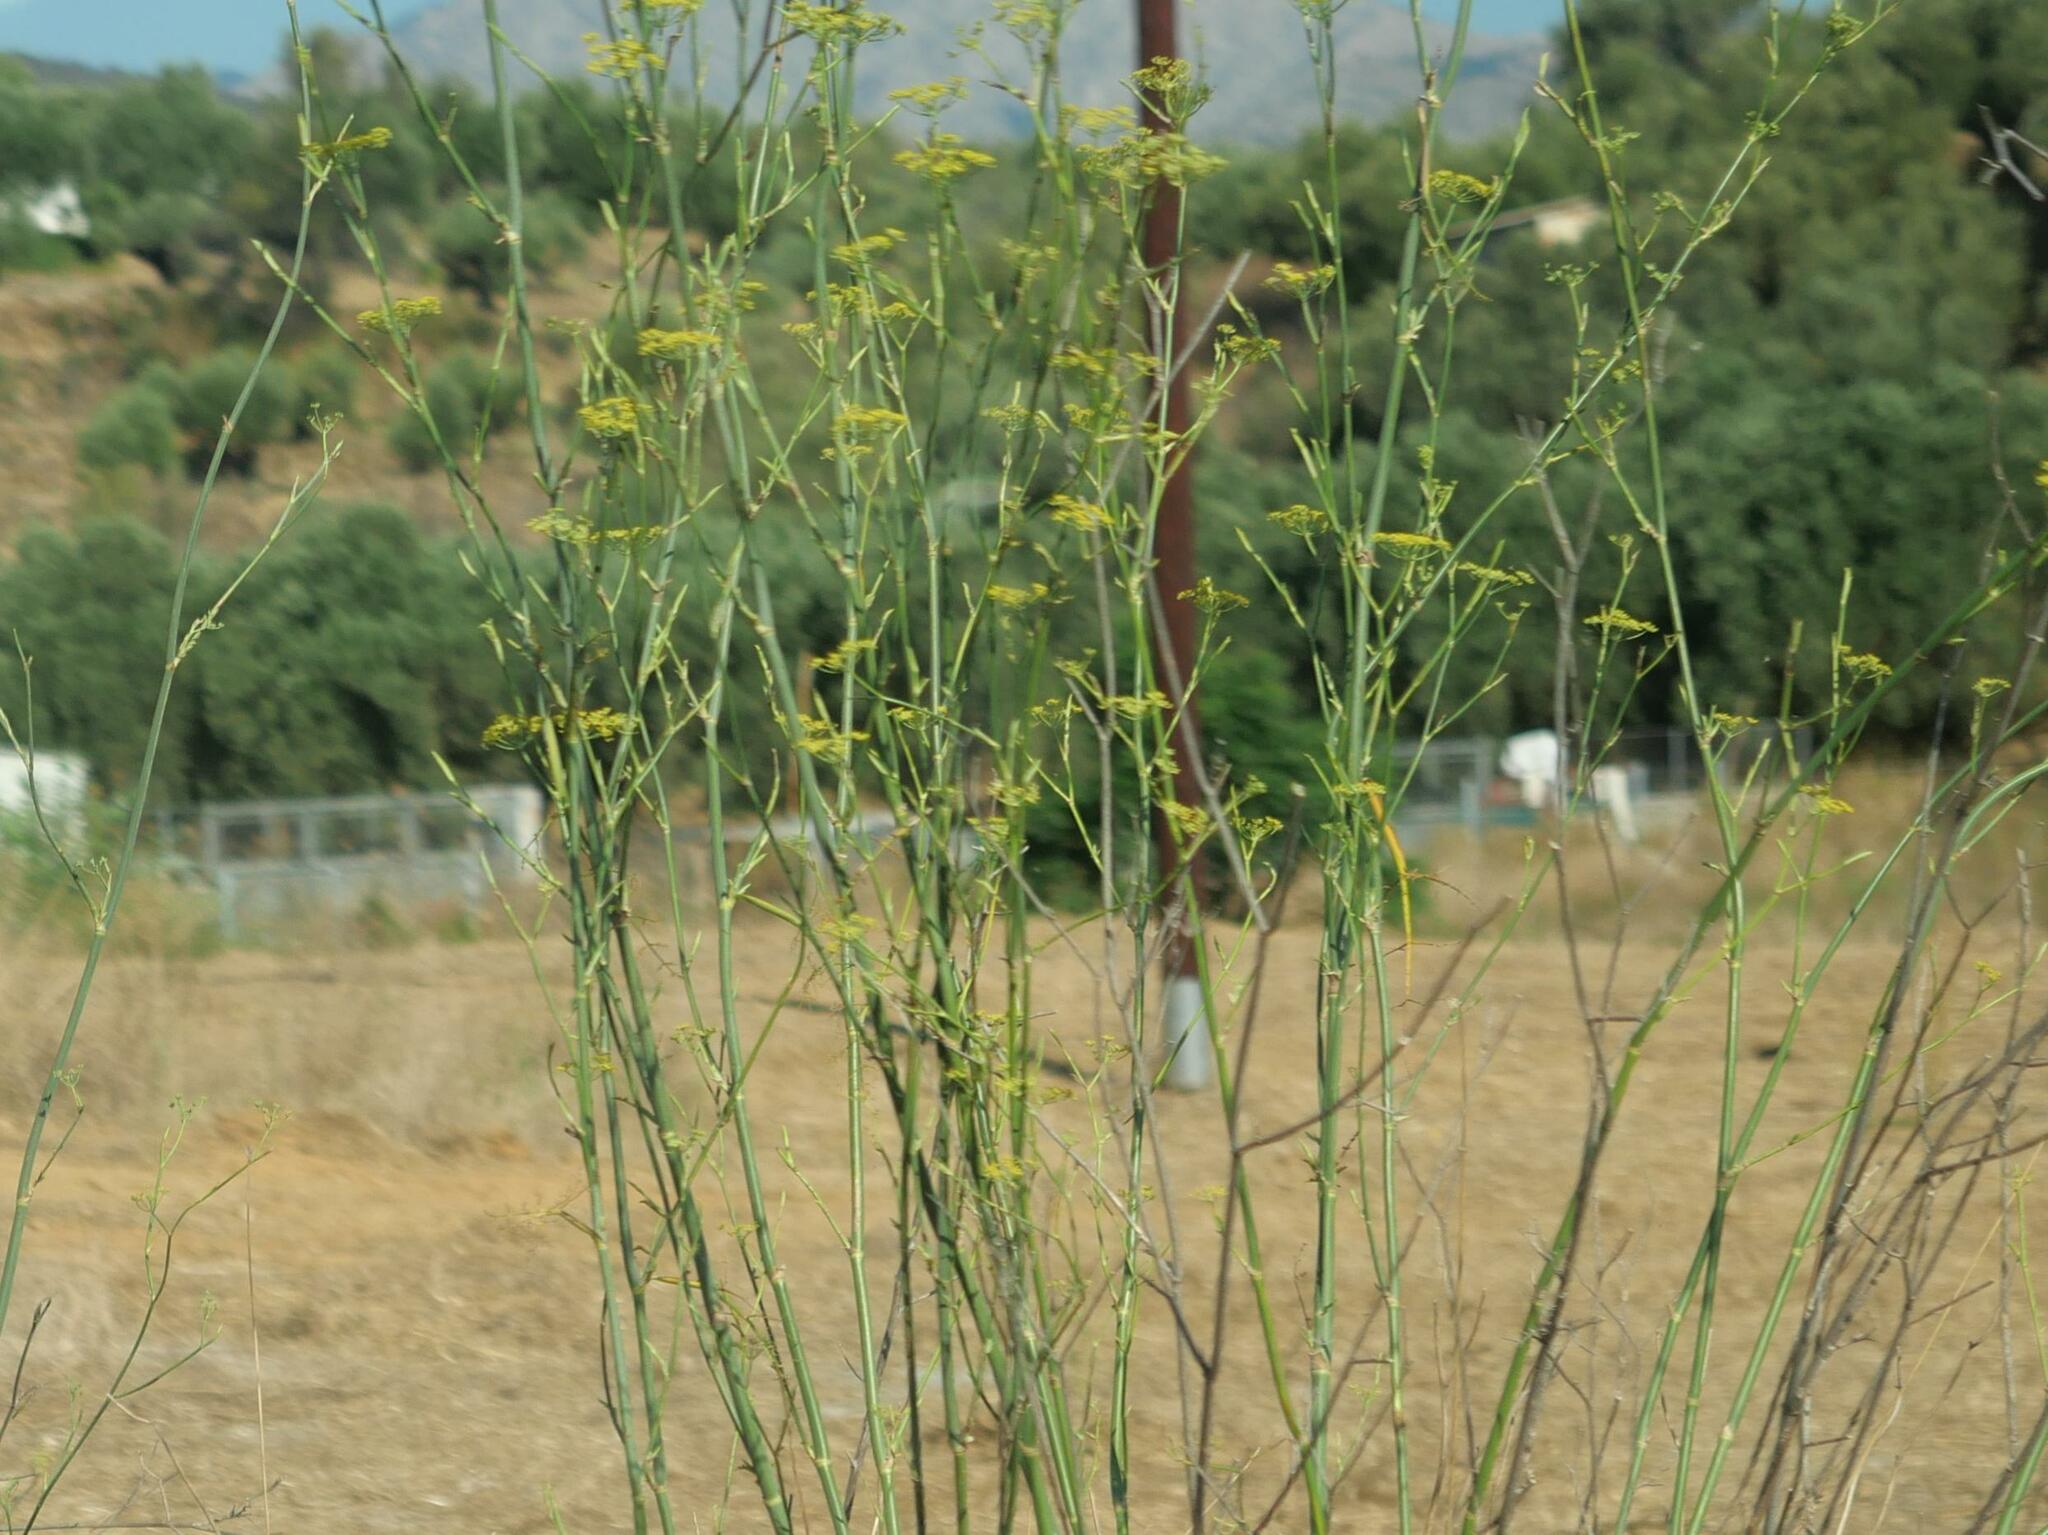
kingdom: Plantae
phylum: Tracheophyta
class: Magnoliopsida
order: Apiales
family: Apiaceae
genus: Foeniculum
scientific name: Foeniculum vulgare
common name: Fennel
